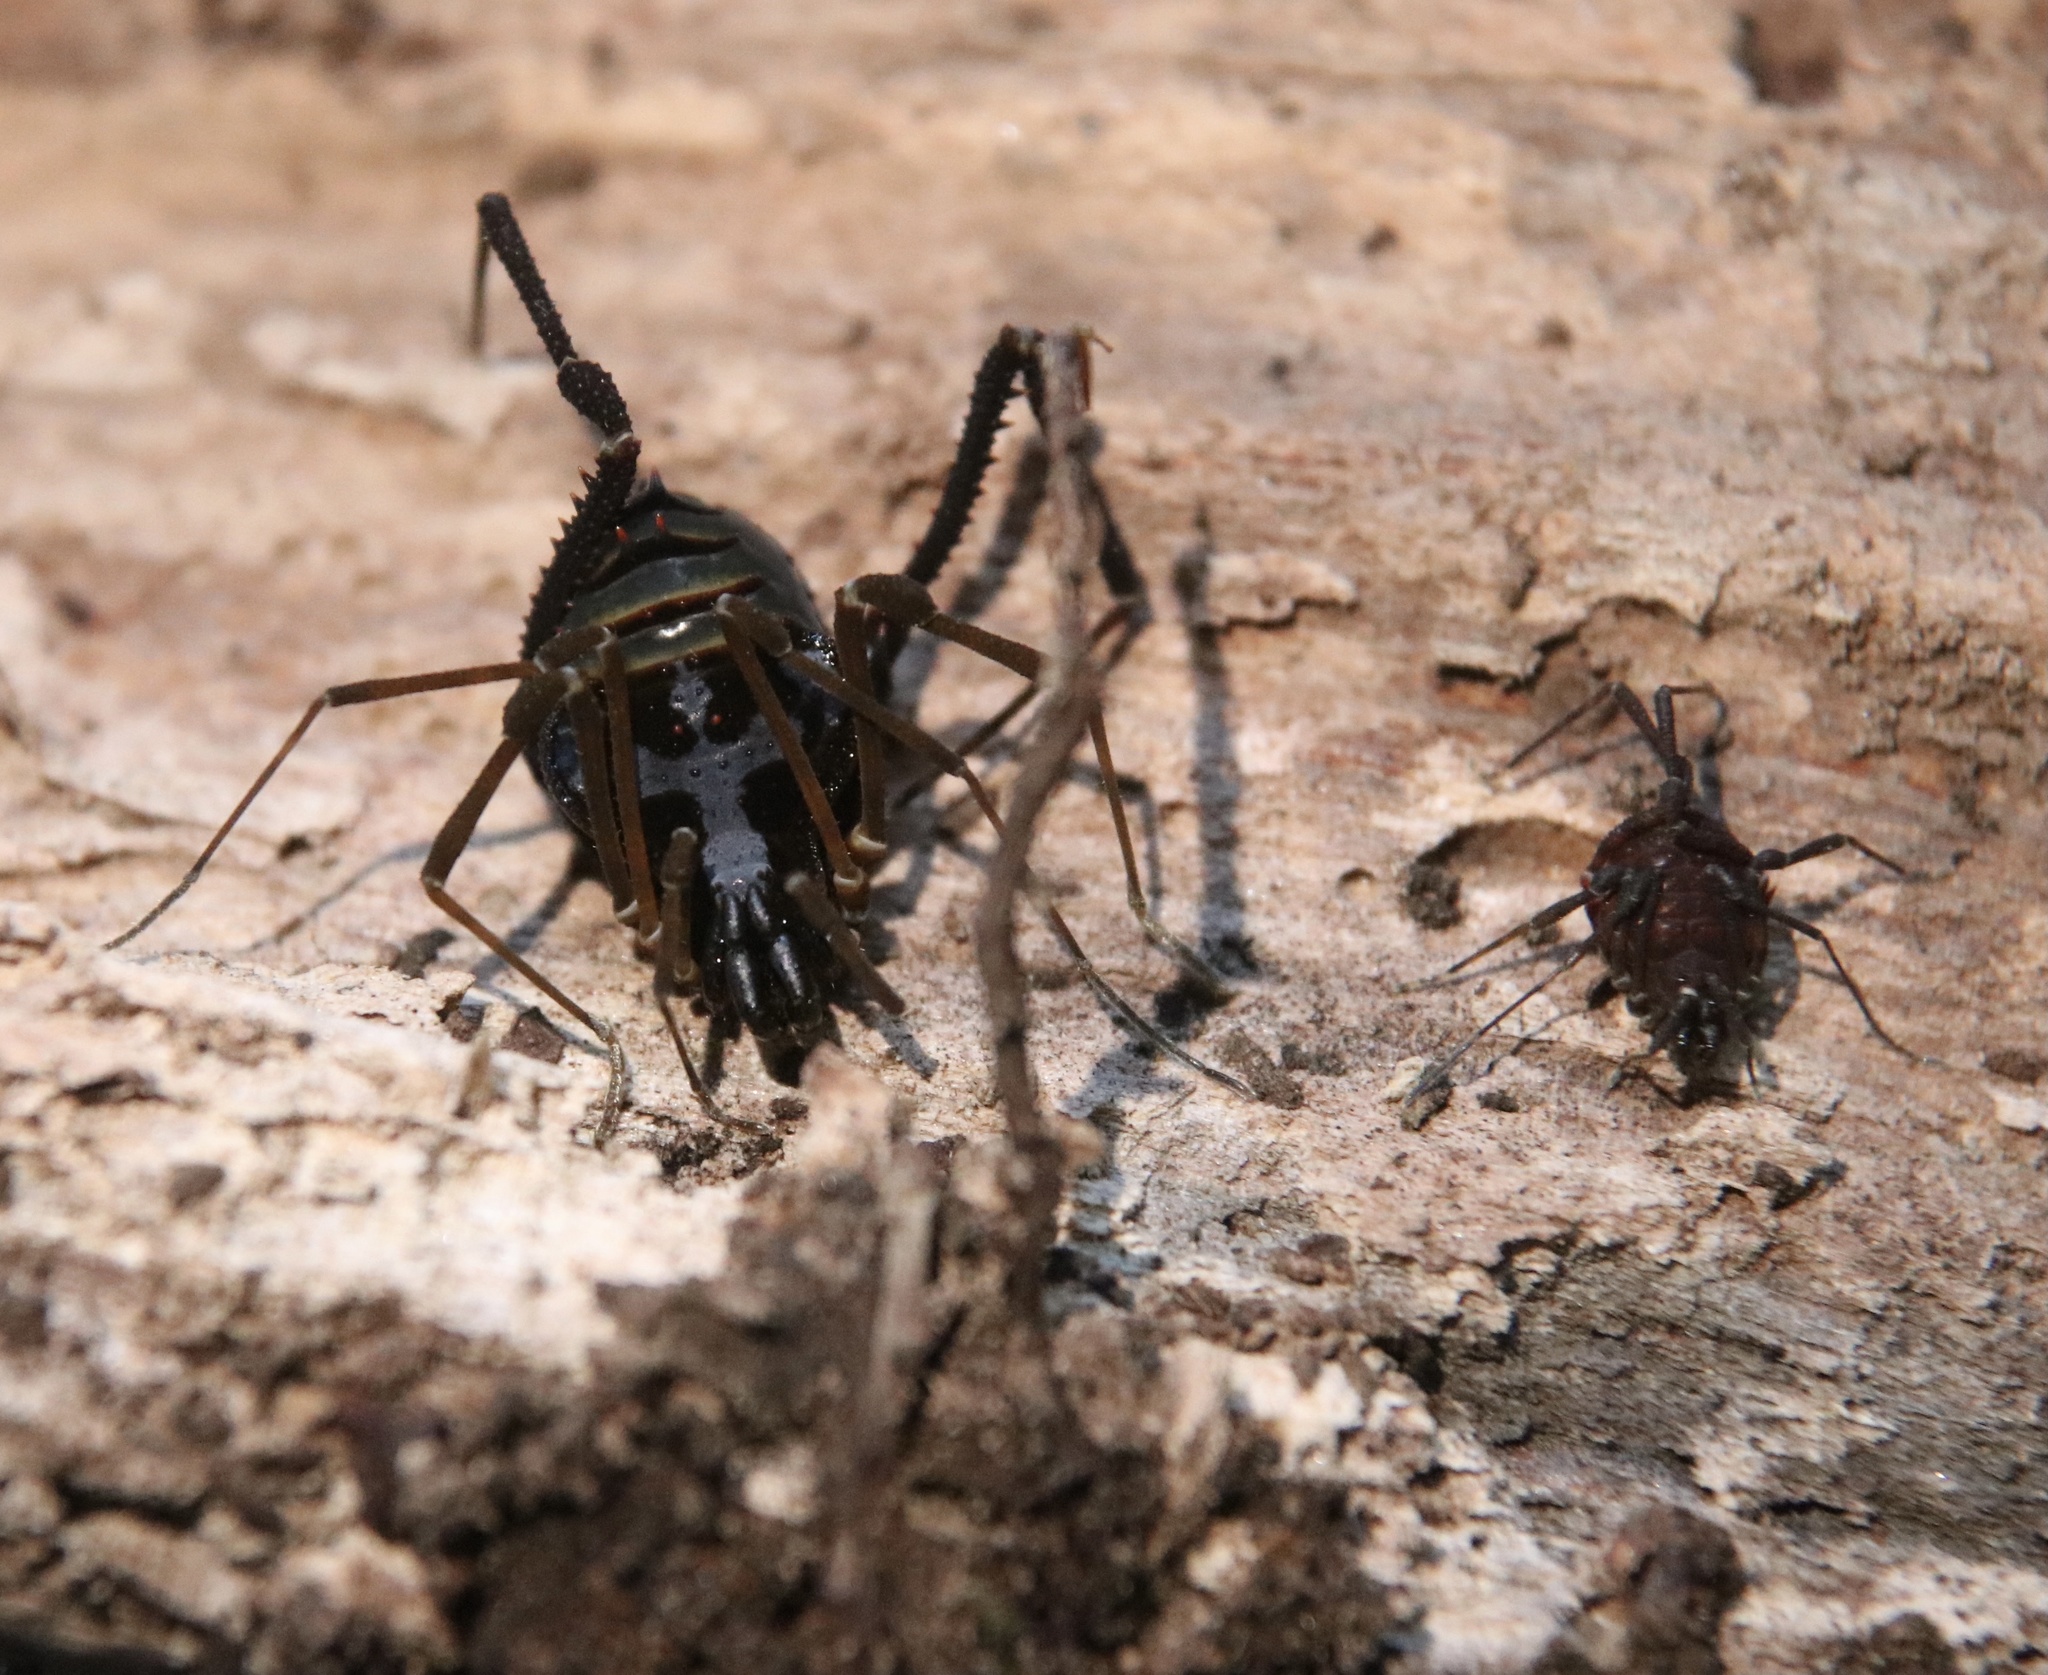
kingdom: Animalia
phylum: Arthropoda
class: Arachnida
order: Opiliones
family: Gonyleptidae
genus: Sadocus
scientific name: Sadocus asperatus
